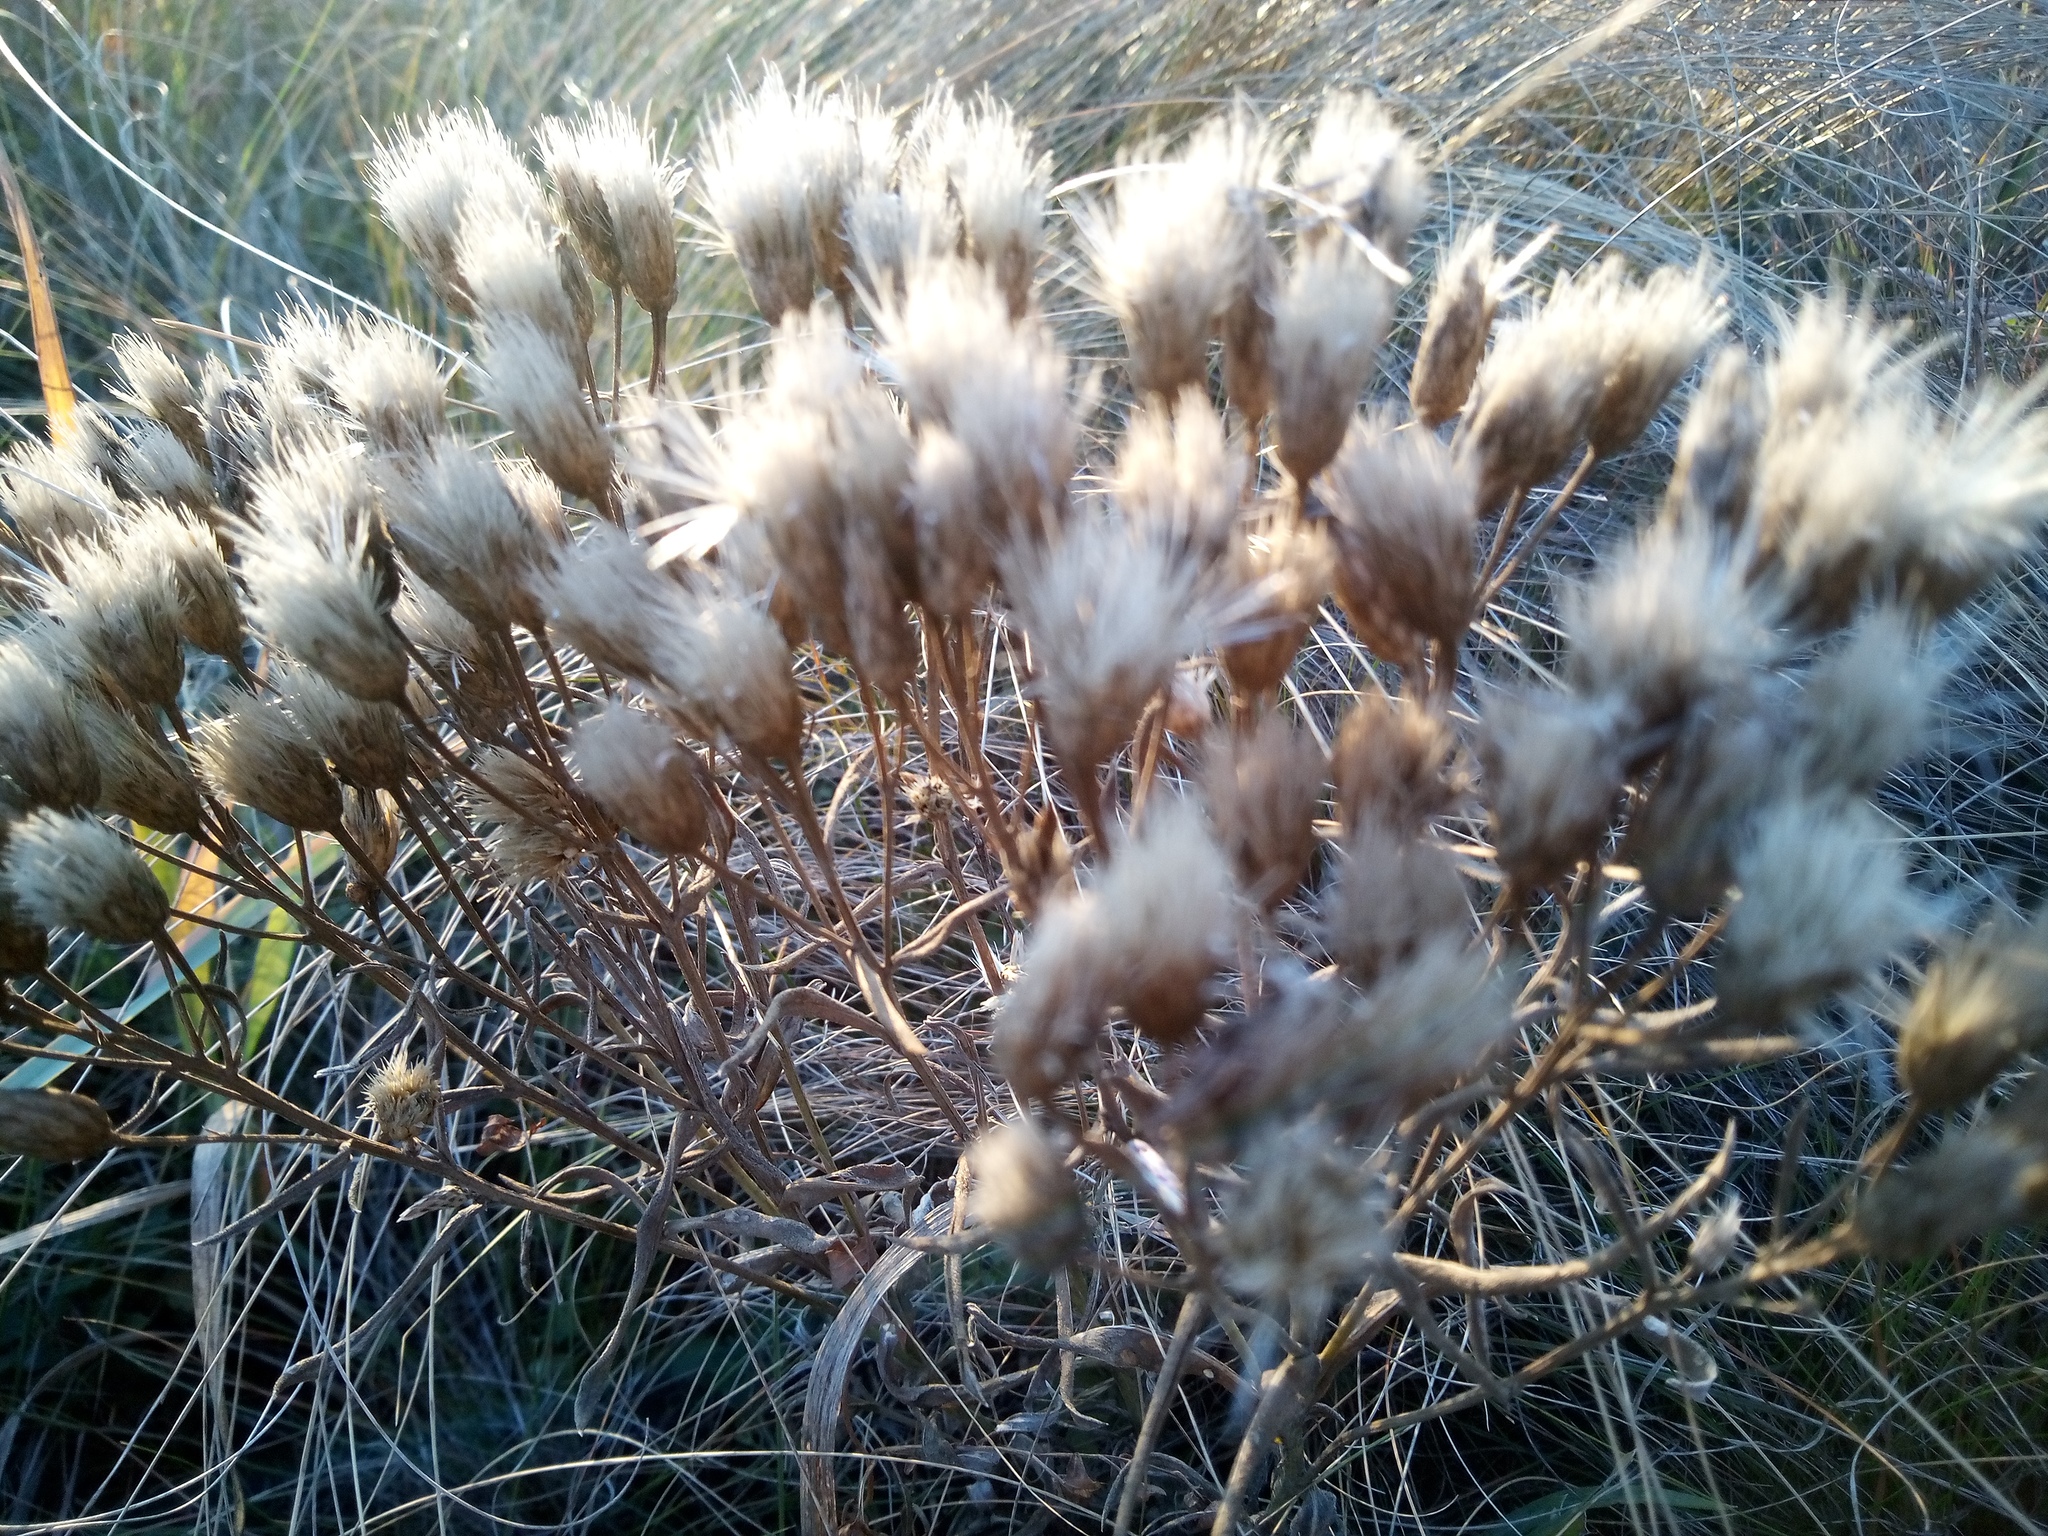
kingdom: Plantae
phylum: Tracheophyta
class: Magnoliopsida
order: Asterales
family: Asteraceae
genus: Jurinea
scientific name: Jurinea multiflora
